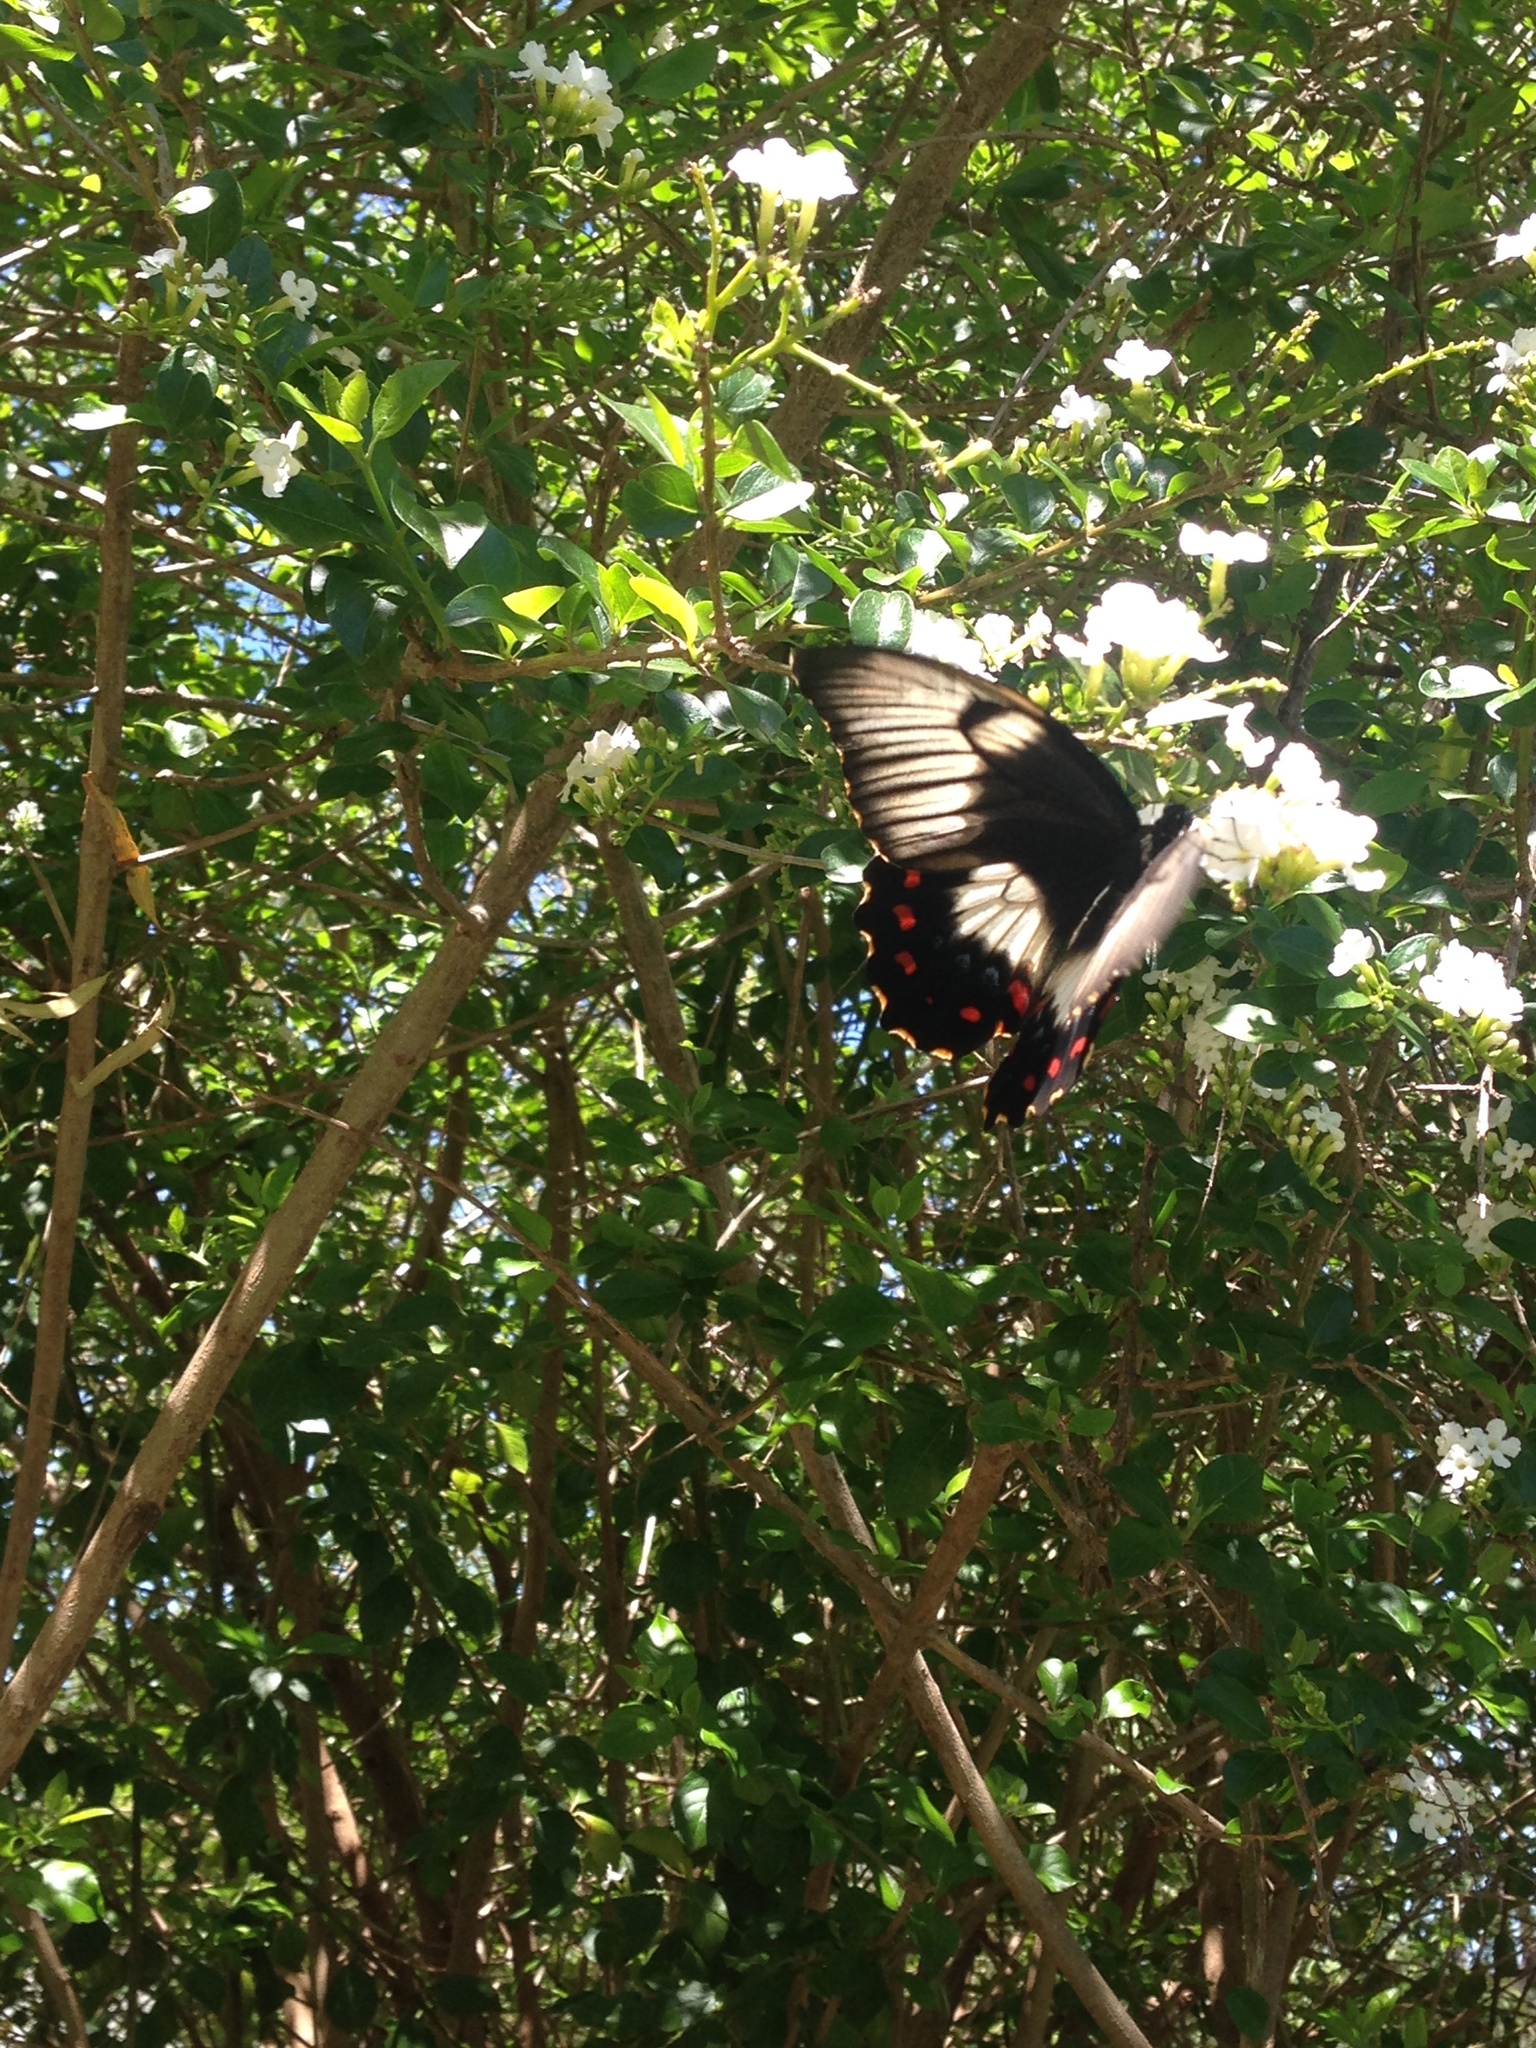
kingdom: Animalia
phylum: Arthropoda
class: Insecta
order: Lepidoptera
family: Papilionidae
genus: Papilio
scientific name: Papilio aegeus
